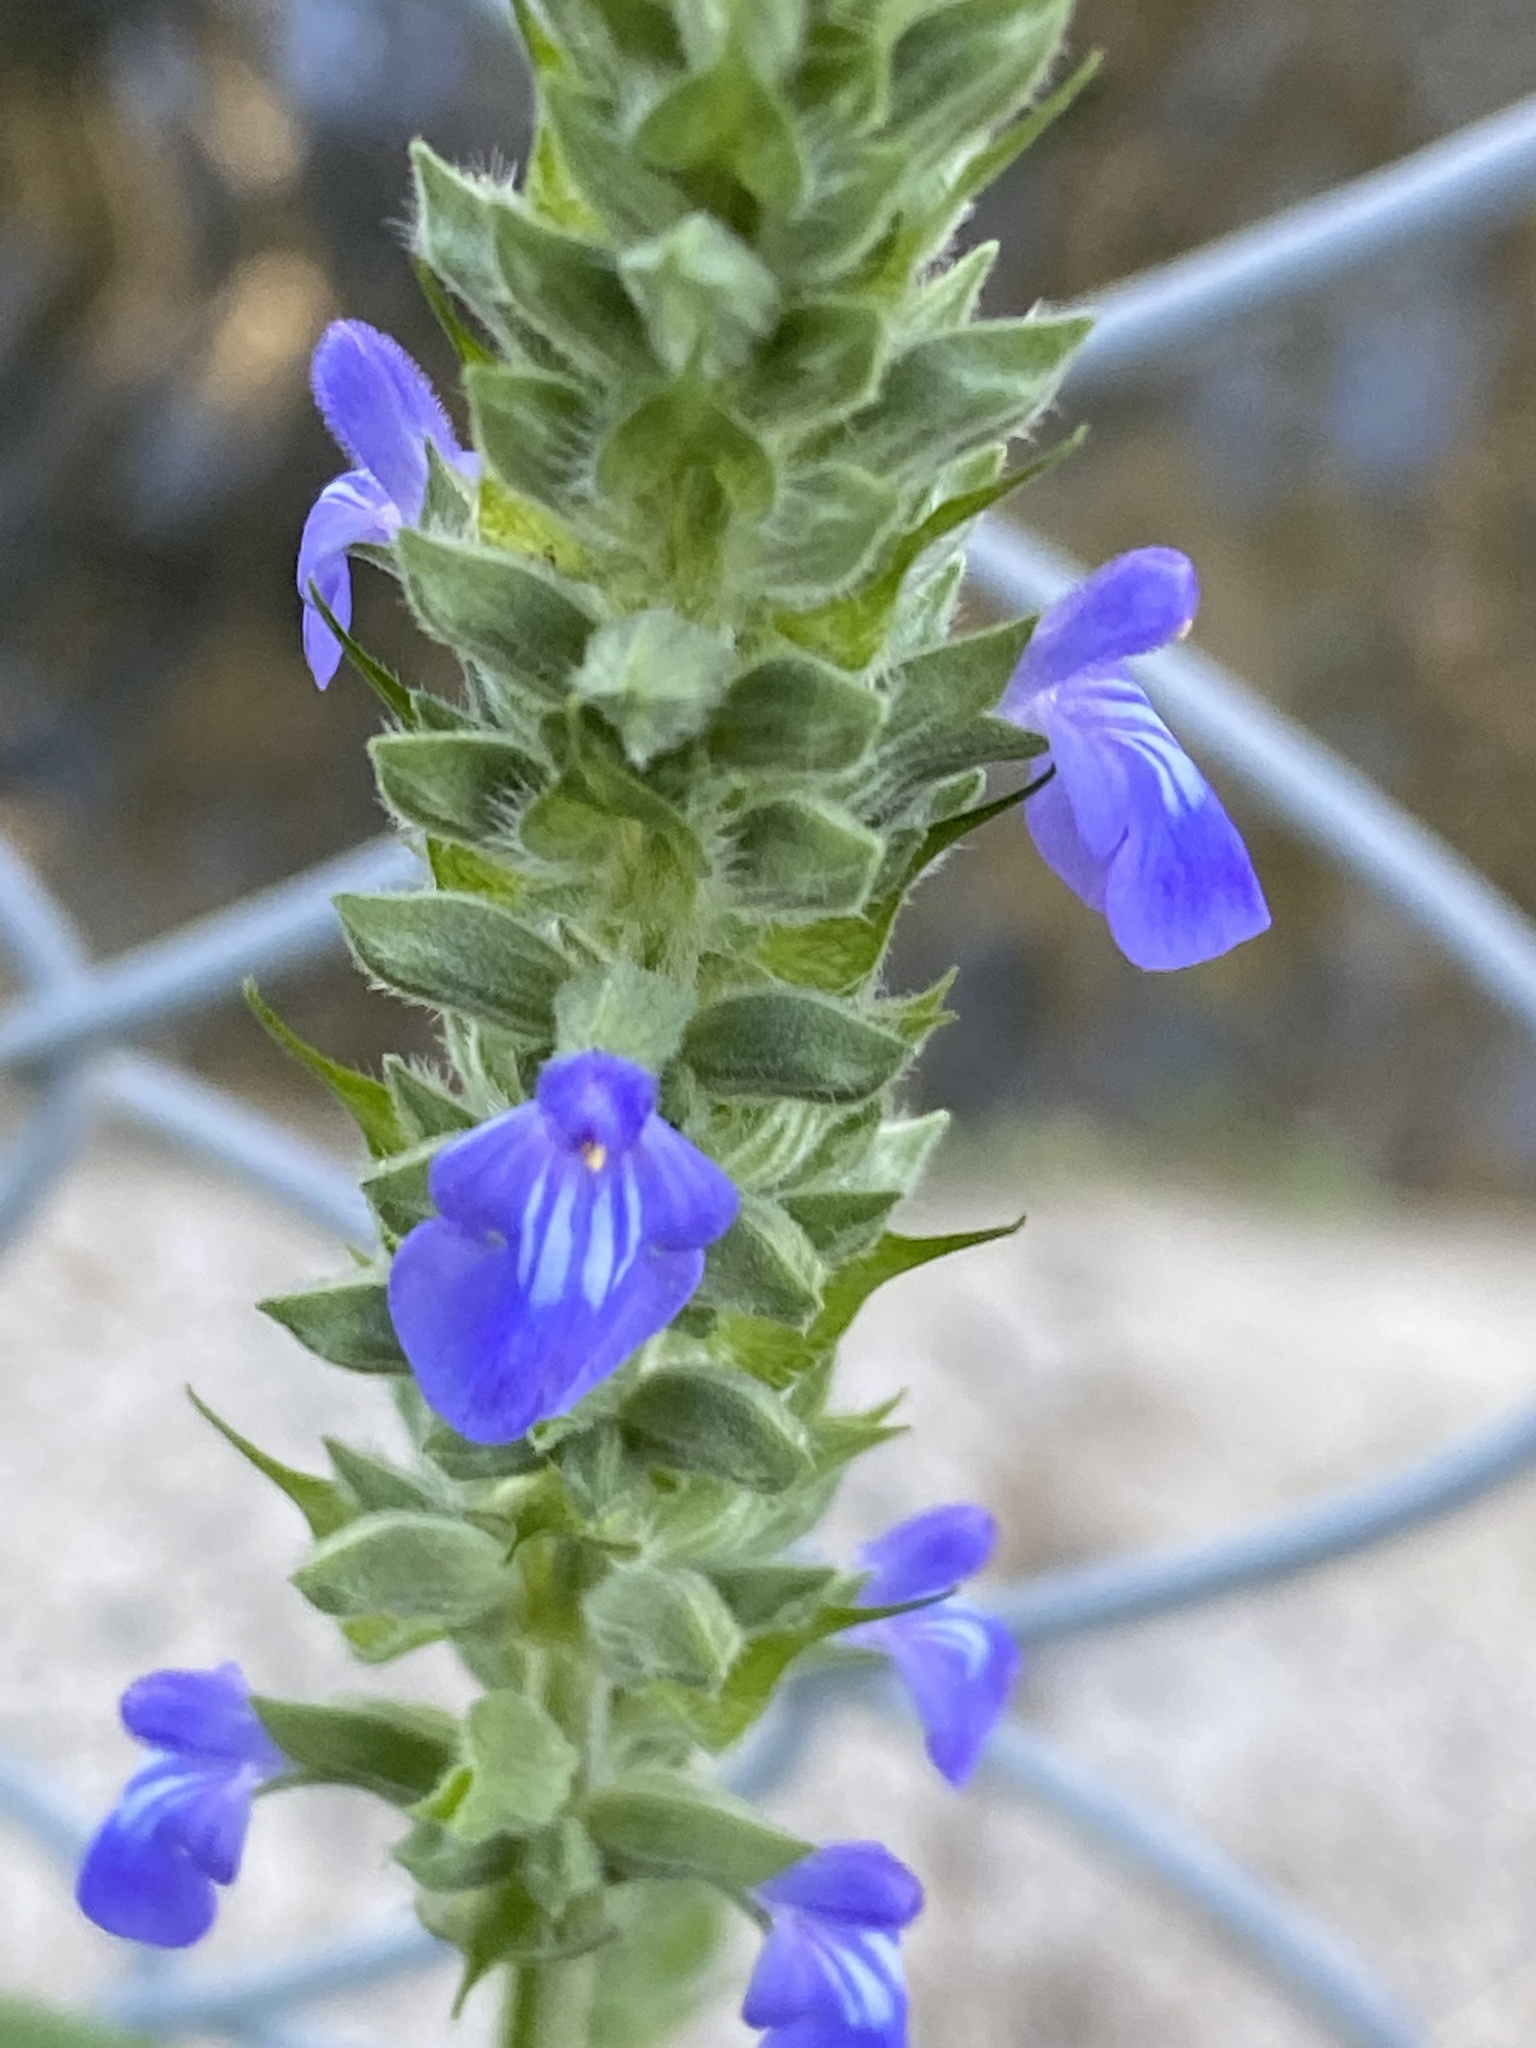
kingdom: Plantae
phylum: Tracheophyta
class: Magnoliopsida
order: Lamiales
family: Lamiaceae
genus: Salvia
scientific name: Salvia hispanica
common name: Chia
